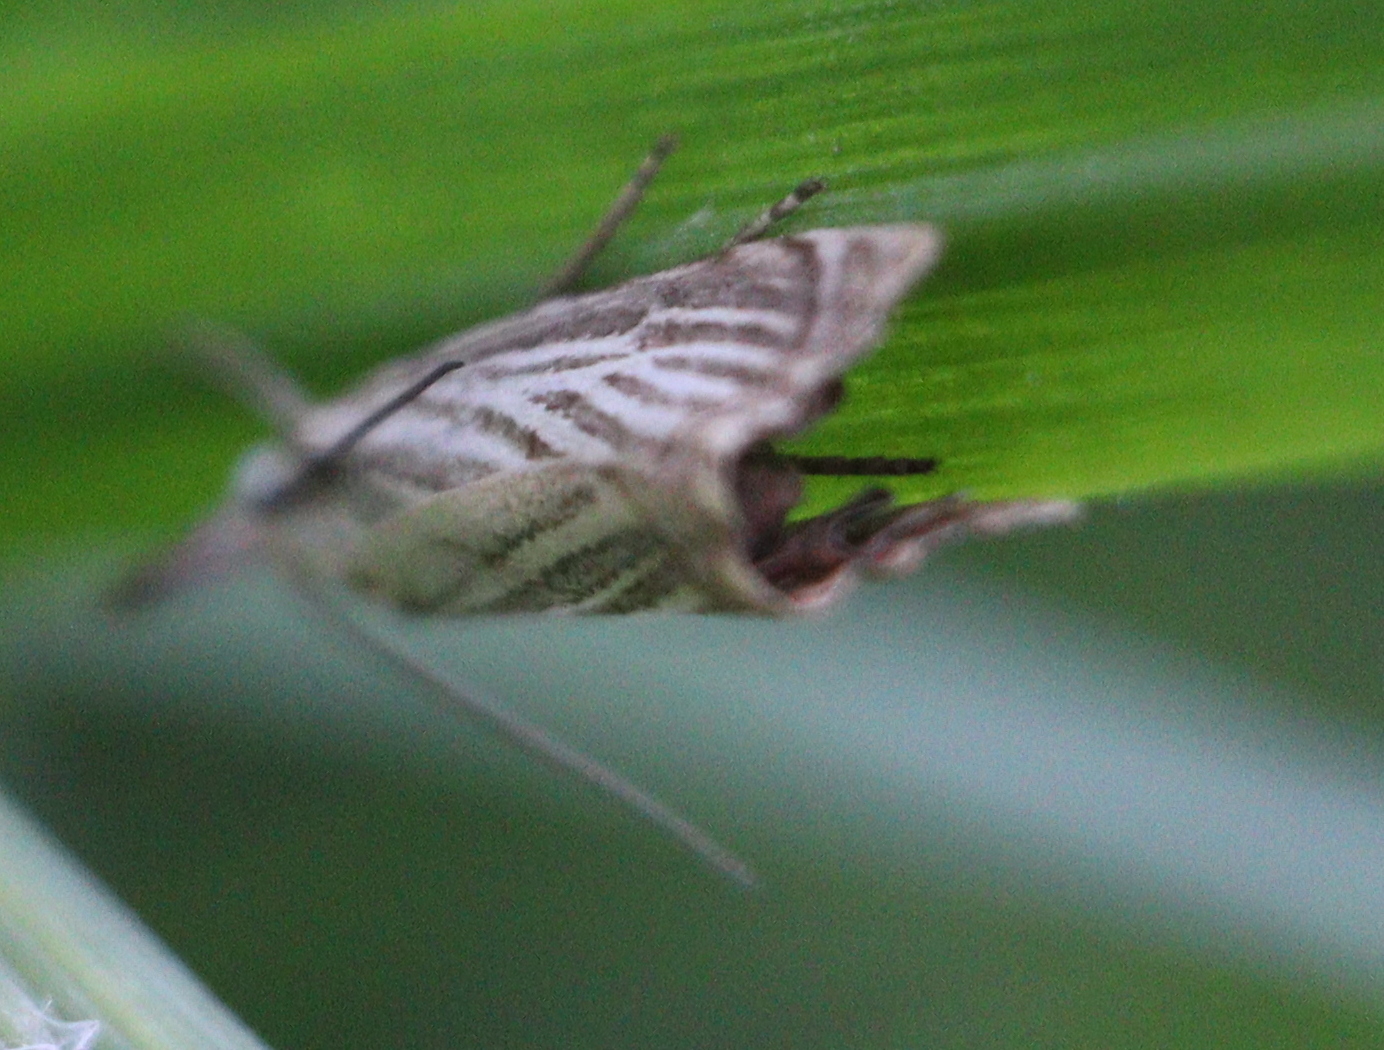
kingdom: Animalia
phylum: Arthropoda
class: Insecta
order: Lepidoptera
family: Crambidae
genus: Chrysoteuchia
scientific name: Chrysoteuchia culmella
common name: Garden grass-veneer
